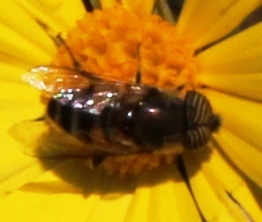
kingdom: Animalia
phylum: Arthropoda
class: Insecta
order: Diptera
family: Syrphidae
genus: Eristalinus
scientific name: Eristalinus taeniops
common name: Syrphid fly
